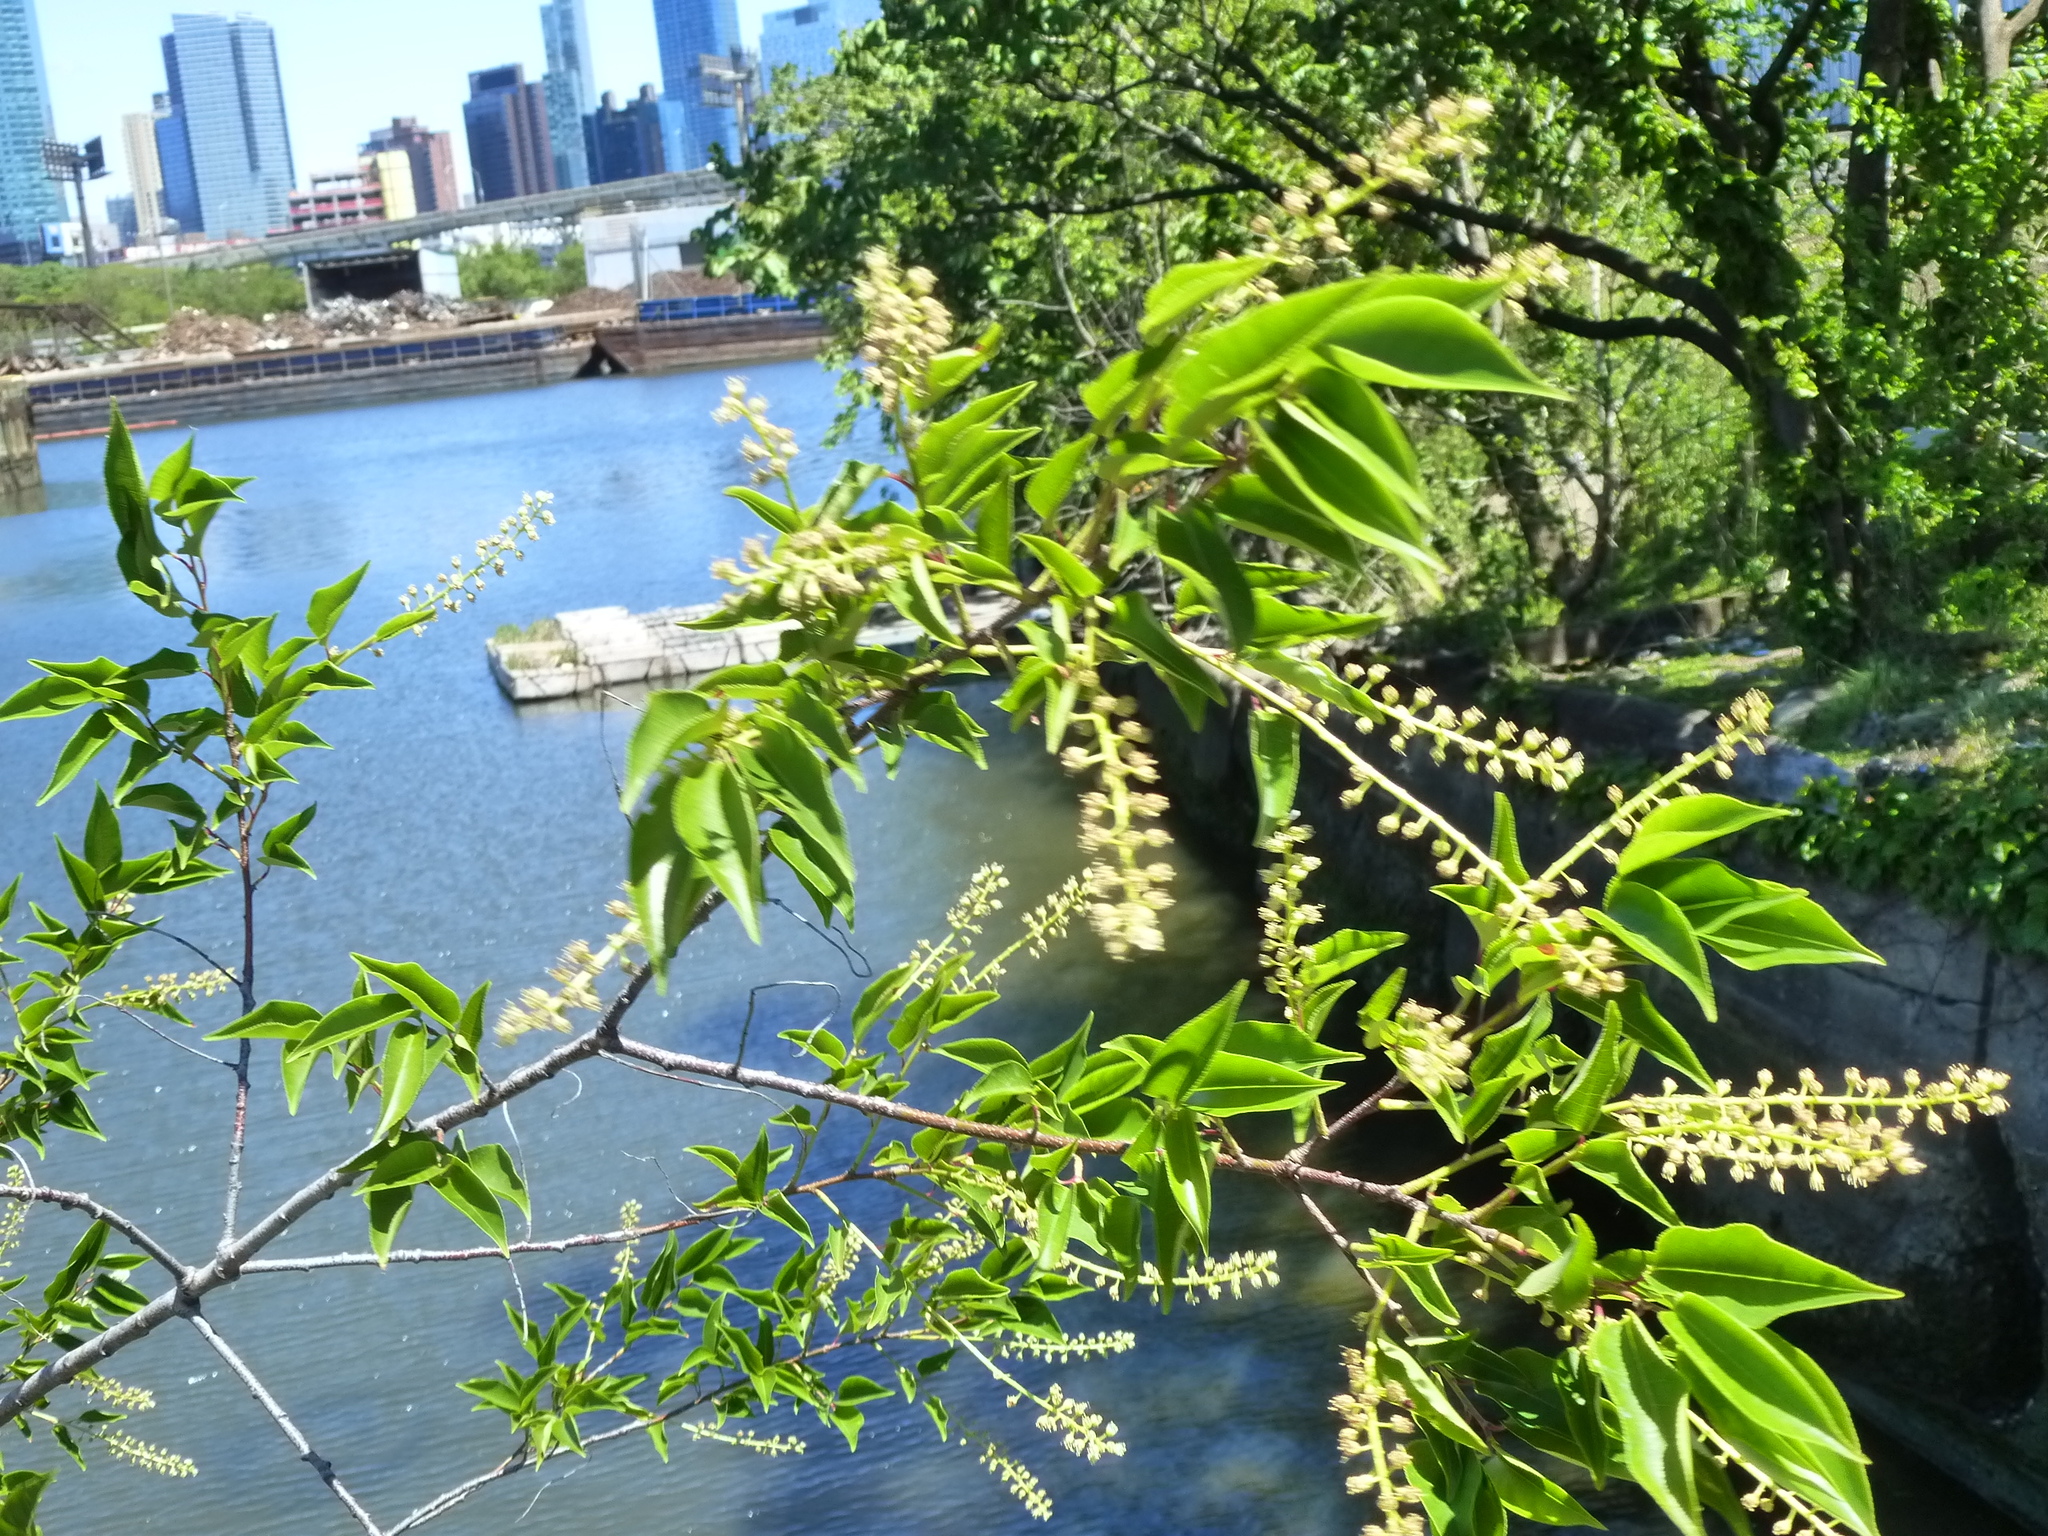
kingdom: Plantae
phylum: Tracheophyta
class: Magnoliopsida
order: Rosales
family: Rosaceae
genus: Prunus
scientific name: Prunus serotina
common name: Black cherry
